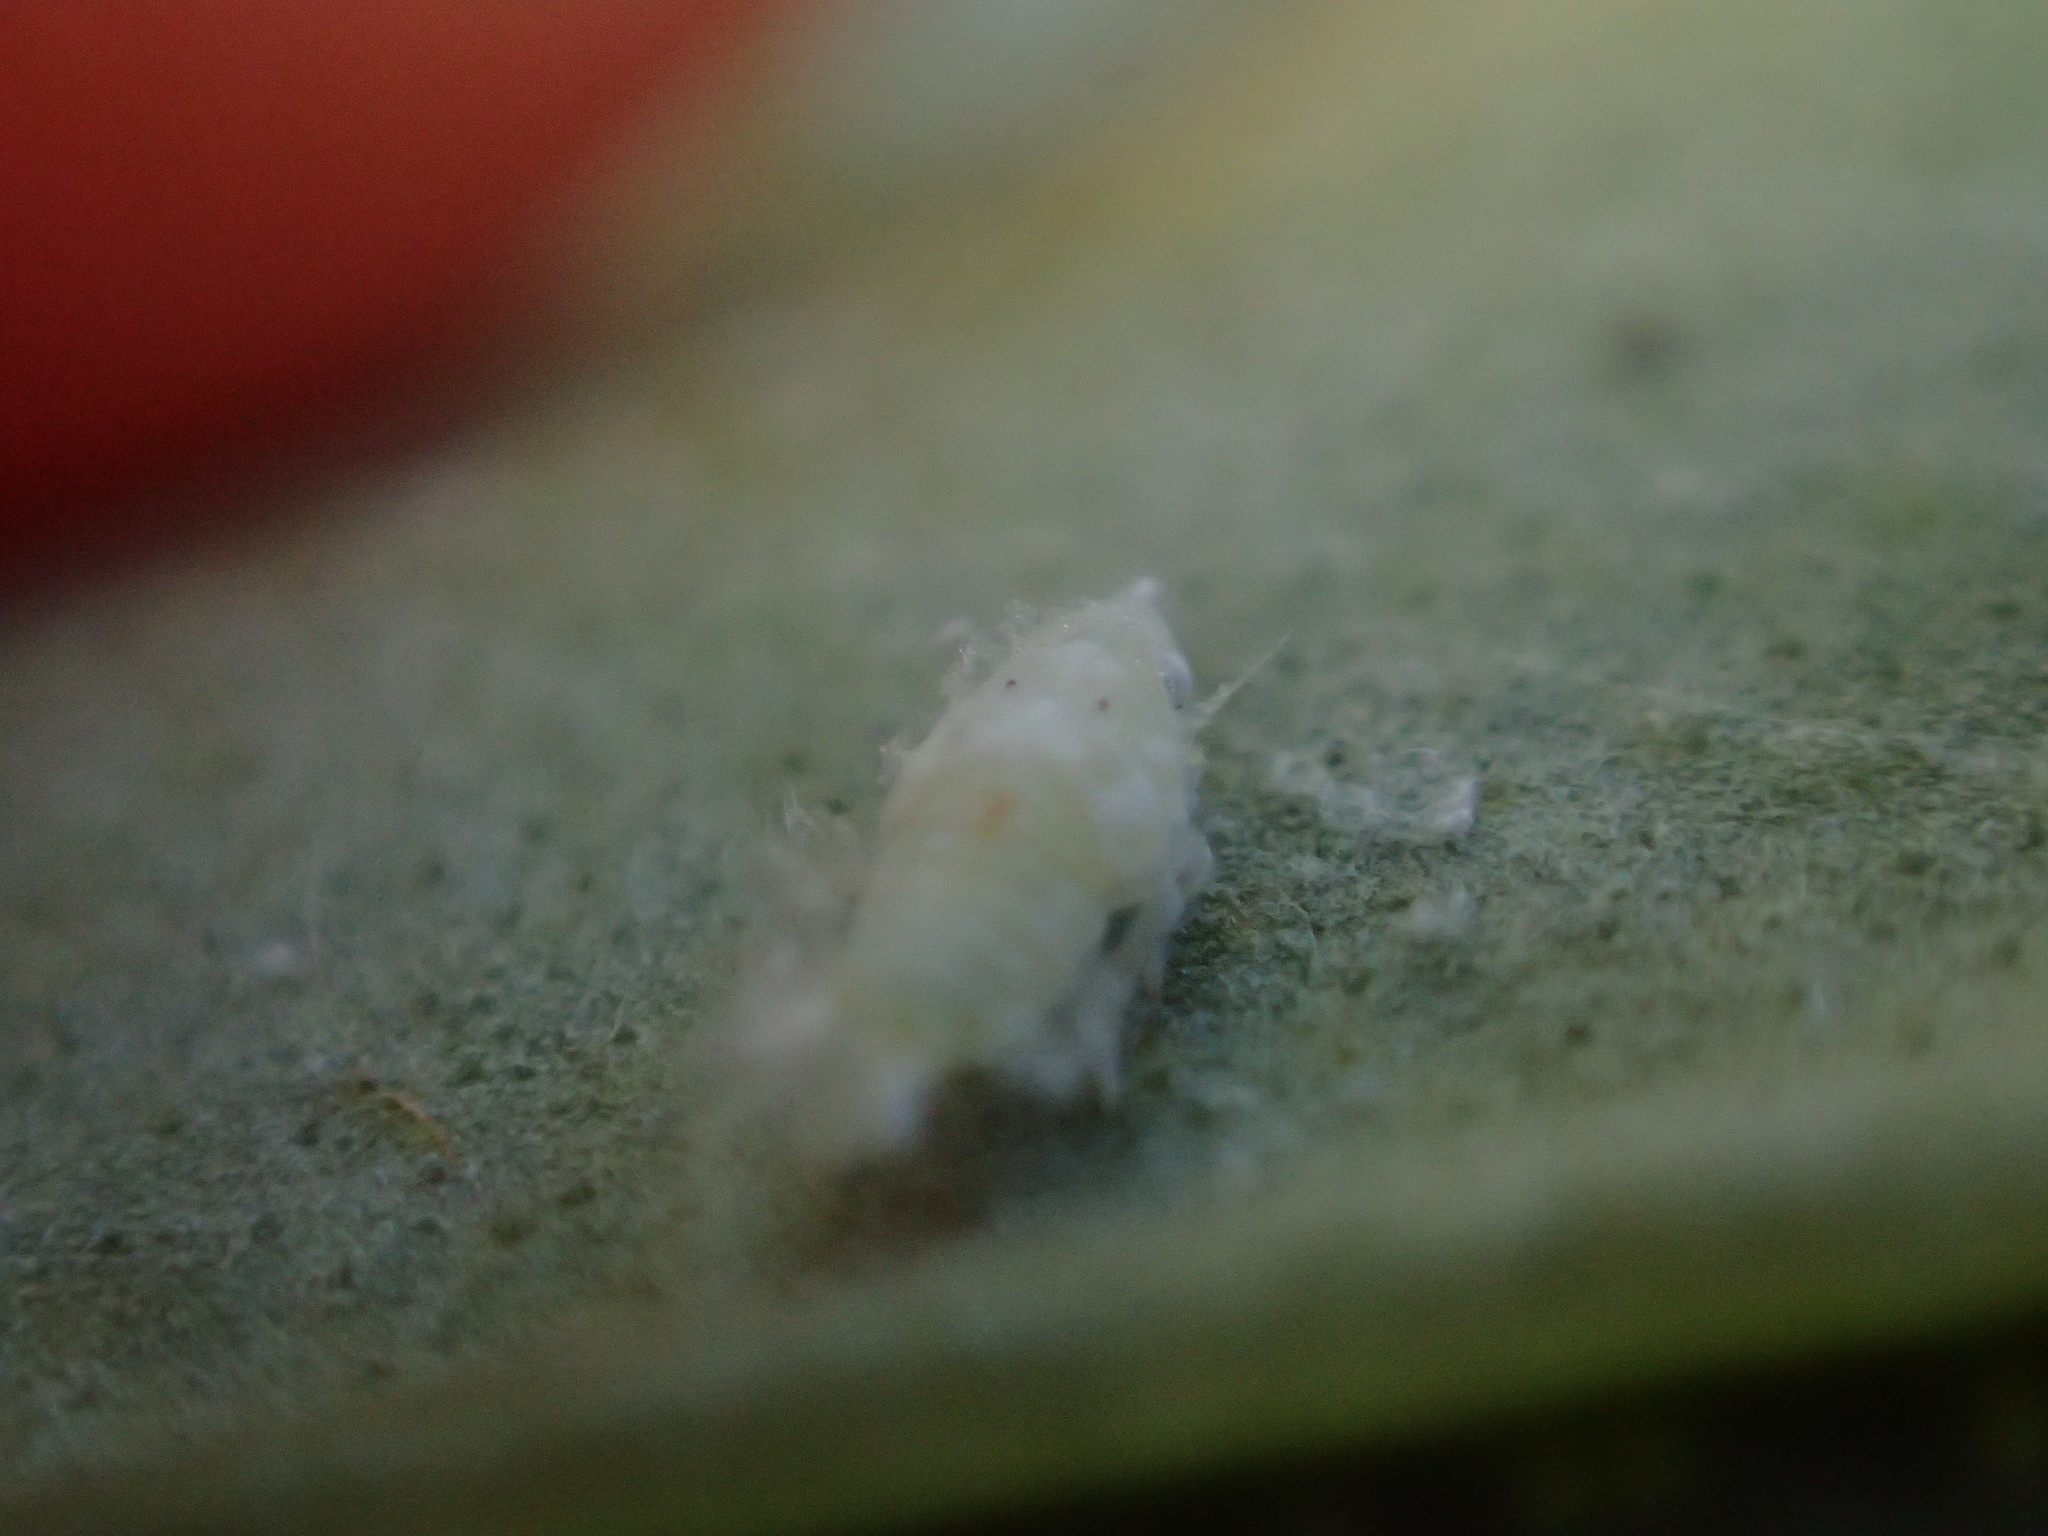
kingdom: Animalia
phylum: Arthropoda
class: Insecta
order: Hemiptera
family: Flatidae
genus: Siphanta
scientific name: Siphanta acuta
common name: Torpedo bug
